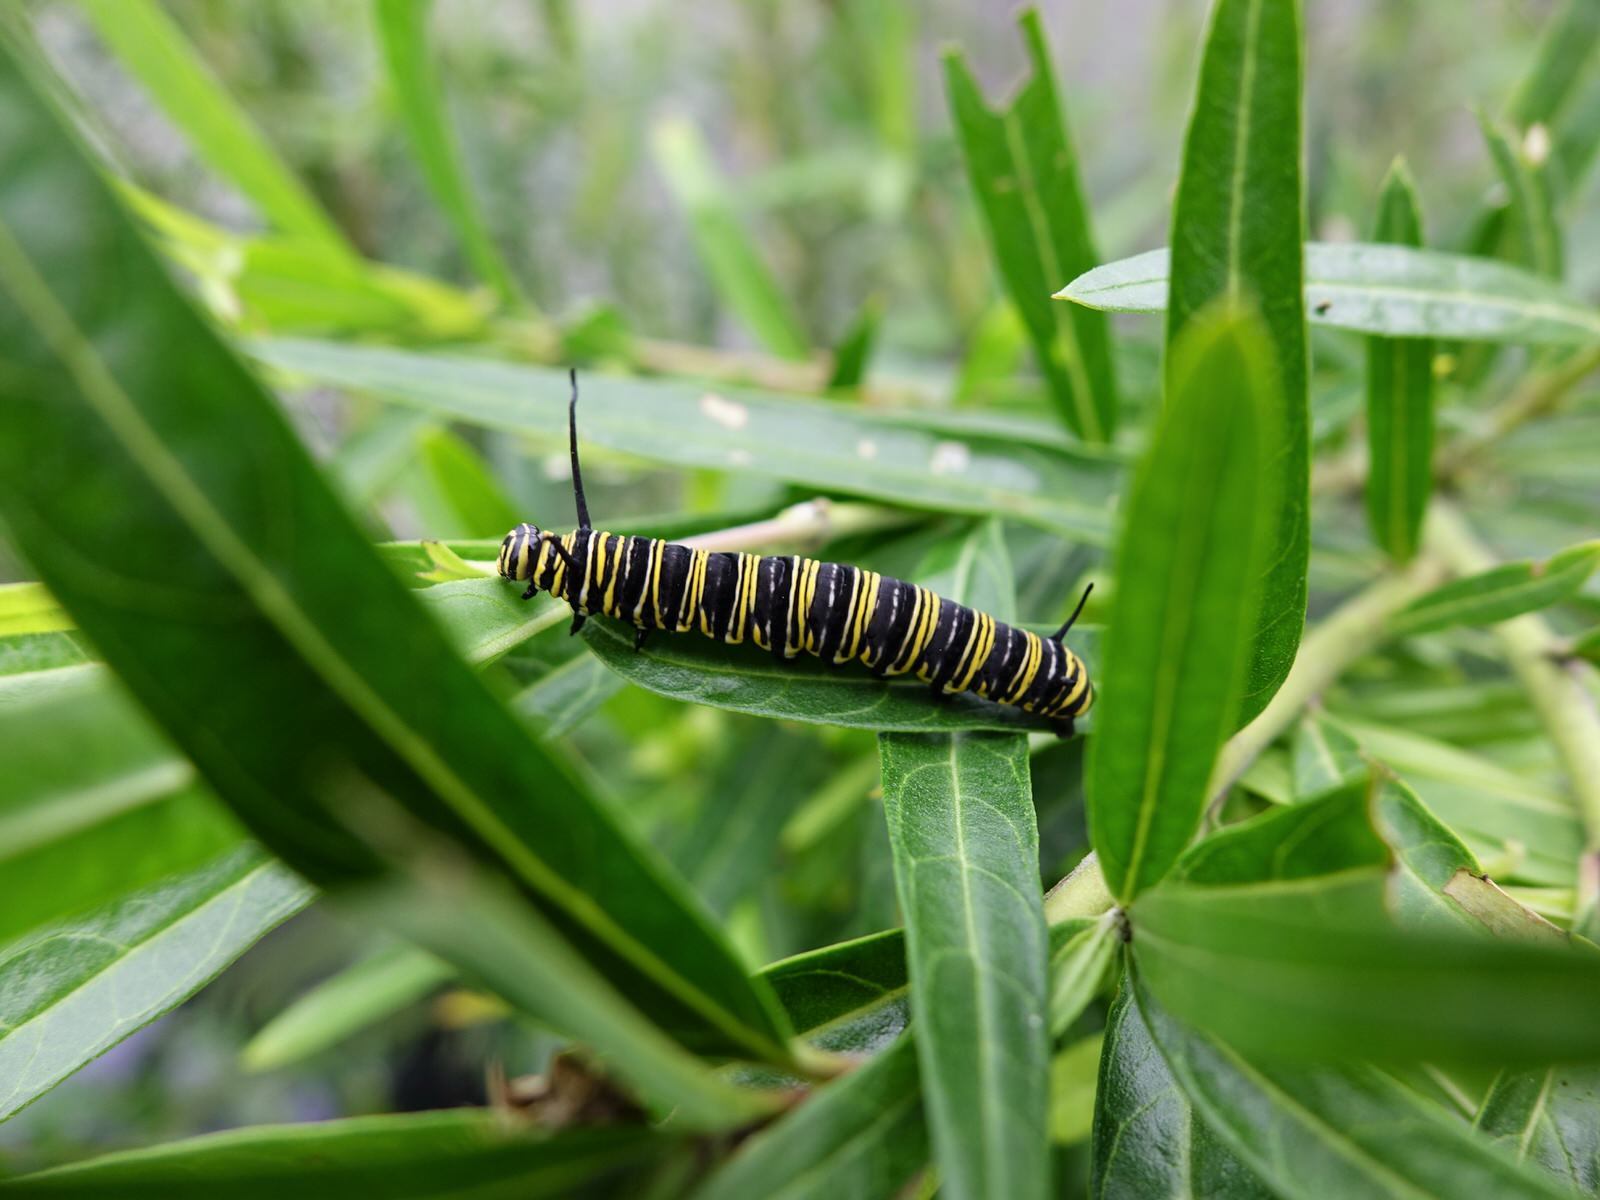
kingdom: Animalia
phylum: Arthropoda
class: Insecta
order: Lepidoptera
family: Nymphalidae
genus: Danaus
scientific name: Danaus plexippus
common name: Monarch
